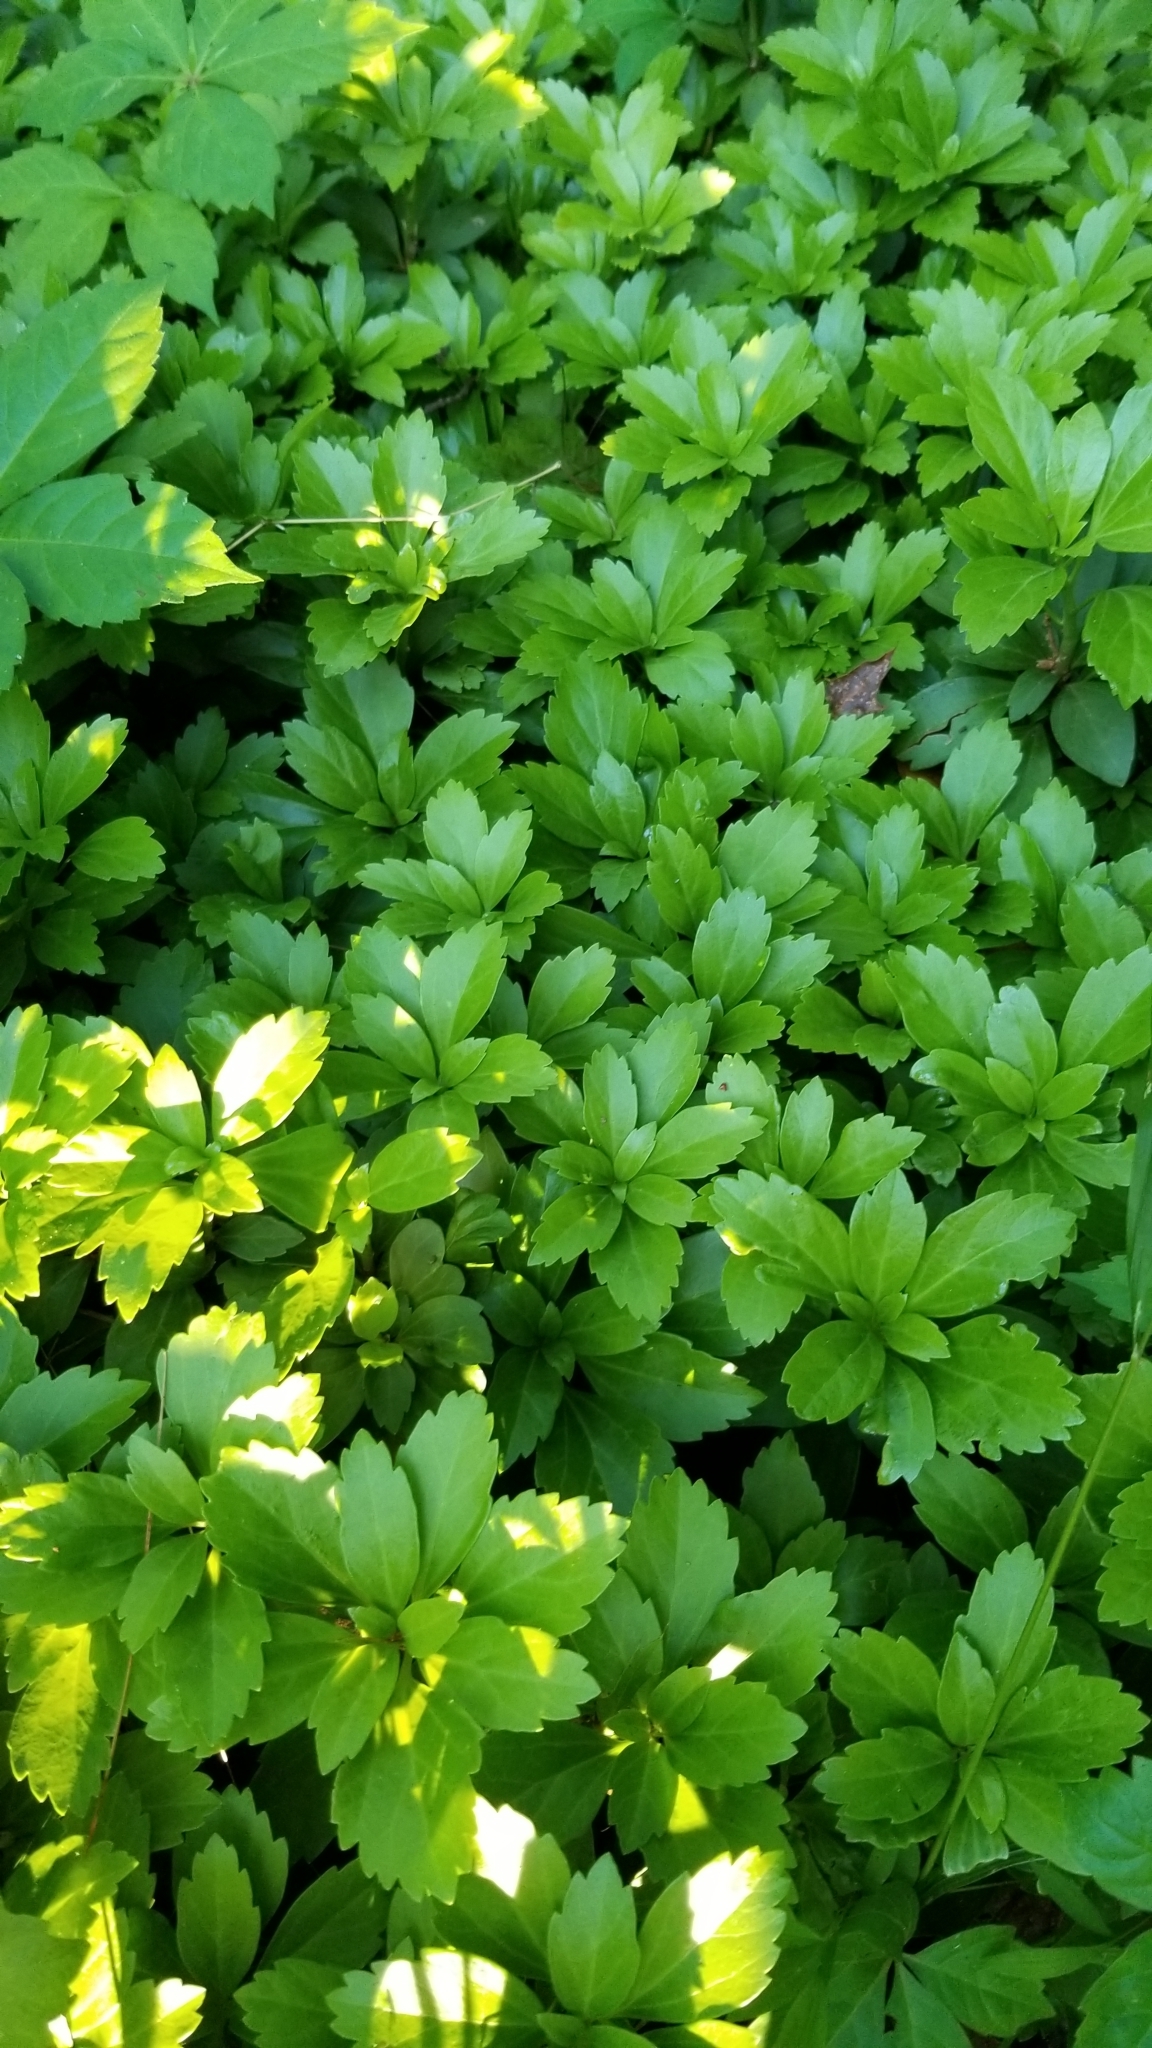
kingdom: Plantae
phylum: Tracheophyta
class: Magnoliopsida
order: Buxales
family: Buxaceae
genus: Pachysandra
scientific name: Pachysandra terminalis
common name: Japanese pachysandra
